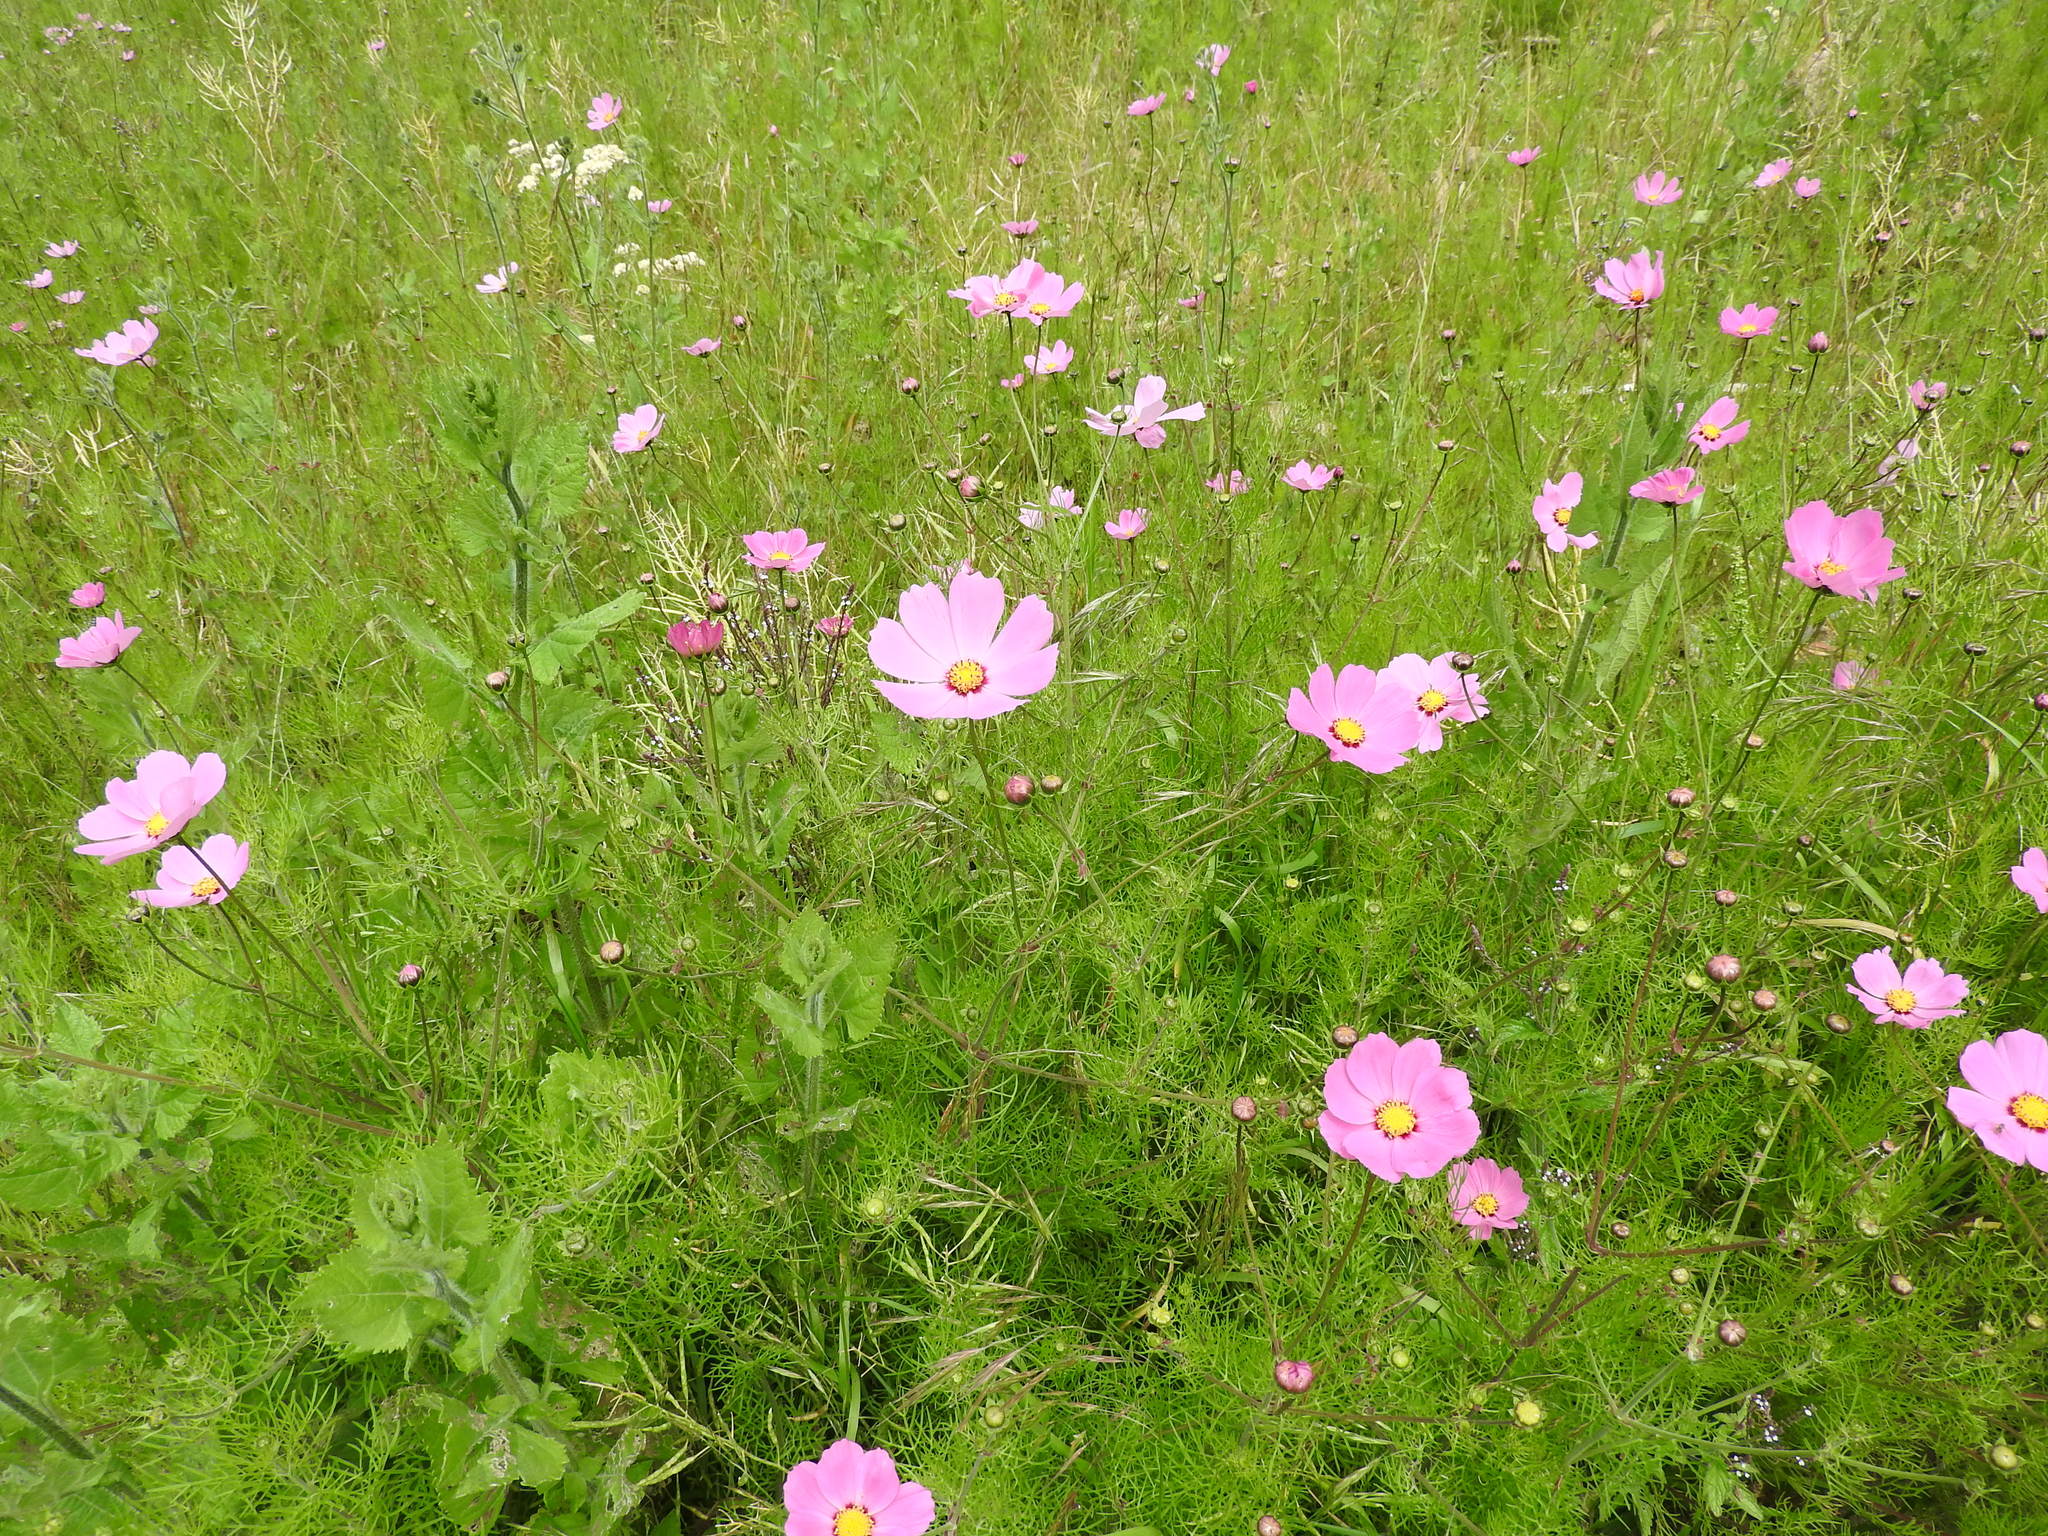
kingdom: Plantae
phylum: Tracheophyta
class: Magnoliopsida
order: Asterales
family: Asteraceae
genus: Cosmos
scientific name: Cosmos bipinnatus
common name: Garden cosmos
